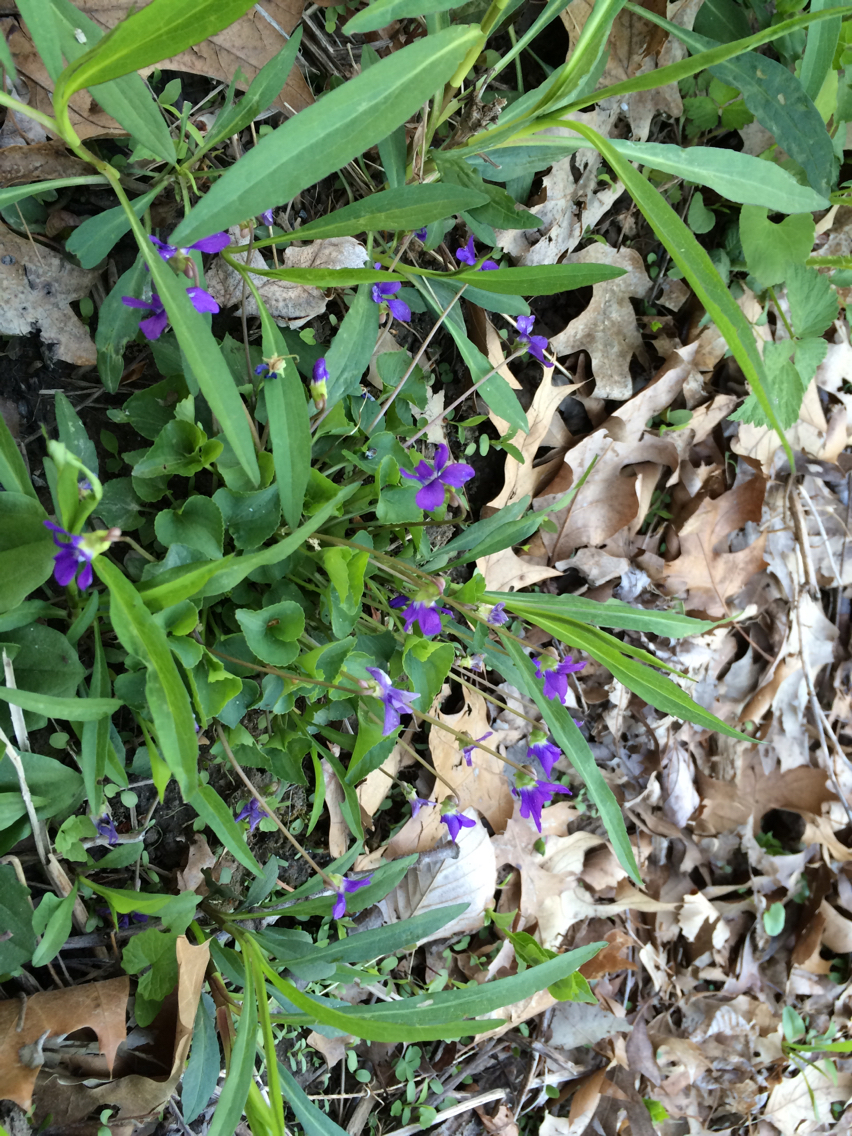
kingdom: Plantae
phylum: Tracheophyta
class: Magnoliopsida
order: Malpighiales
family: Violaceae
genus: Viola
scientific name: Viola sororia
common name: Dooryard violet
